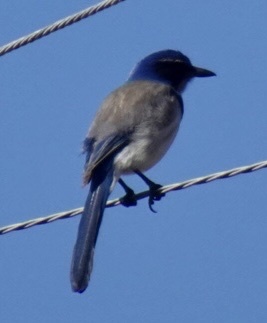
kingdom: Animalia
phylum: Chordata
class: Aves
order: Passeriformes
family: Corvidae
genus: Aphelocoma
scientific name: Aphelocoma californica
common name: California scrub-jay
